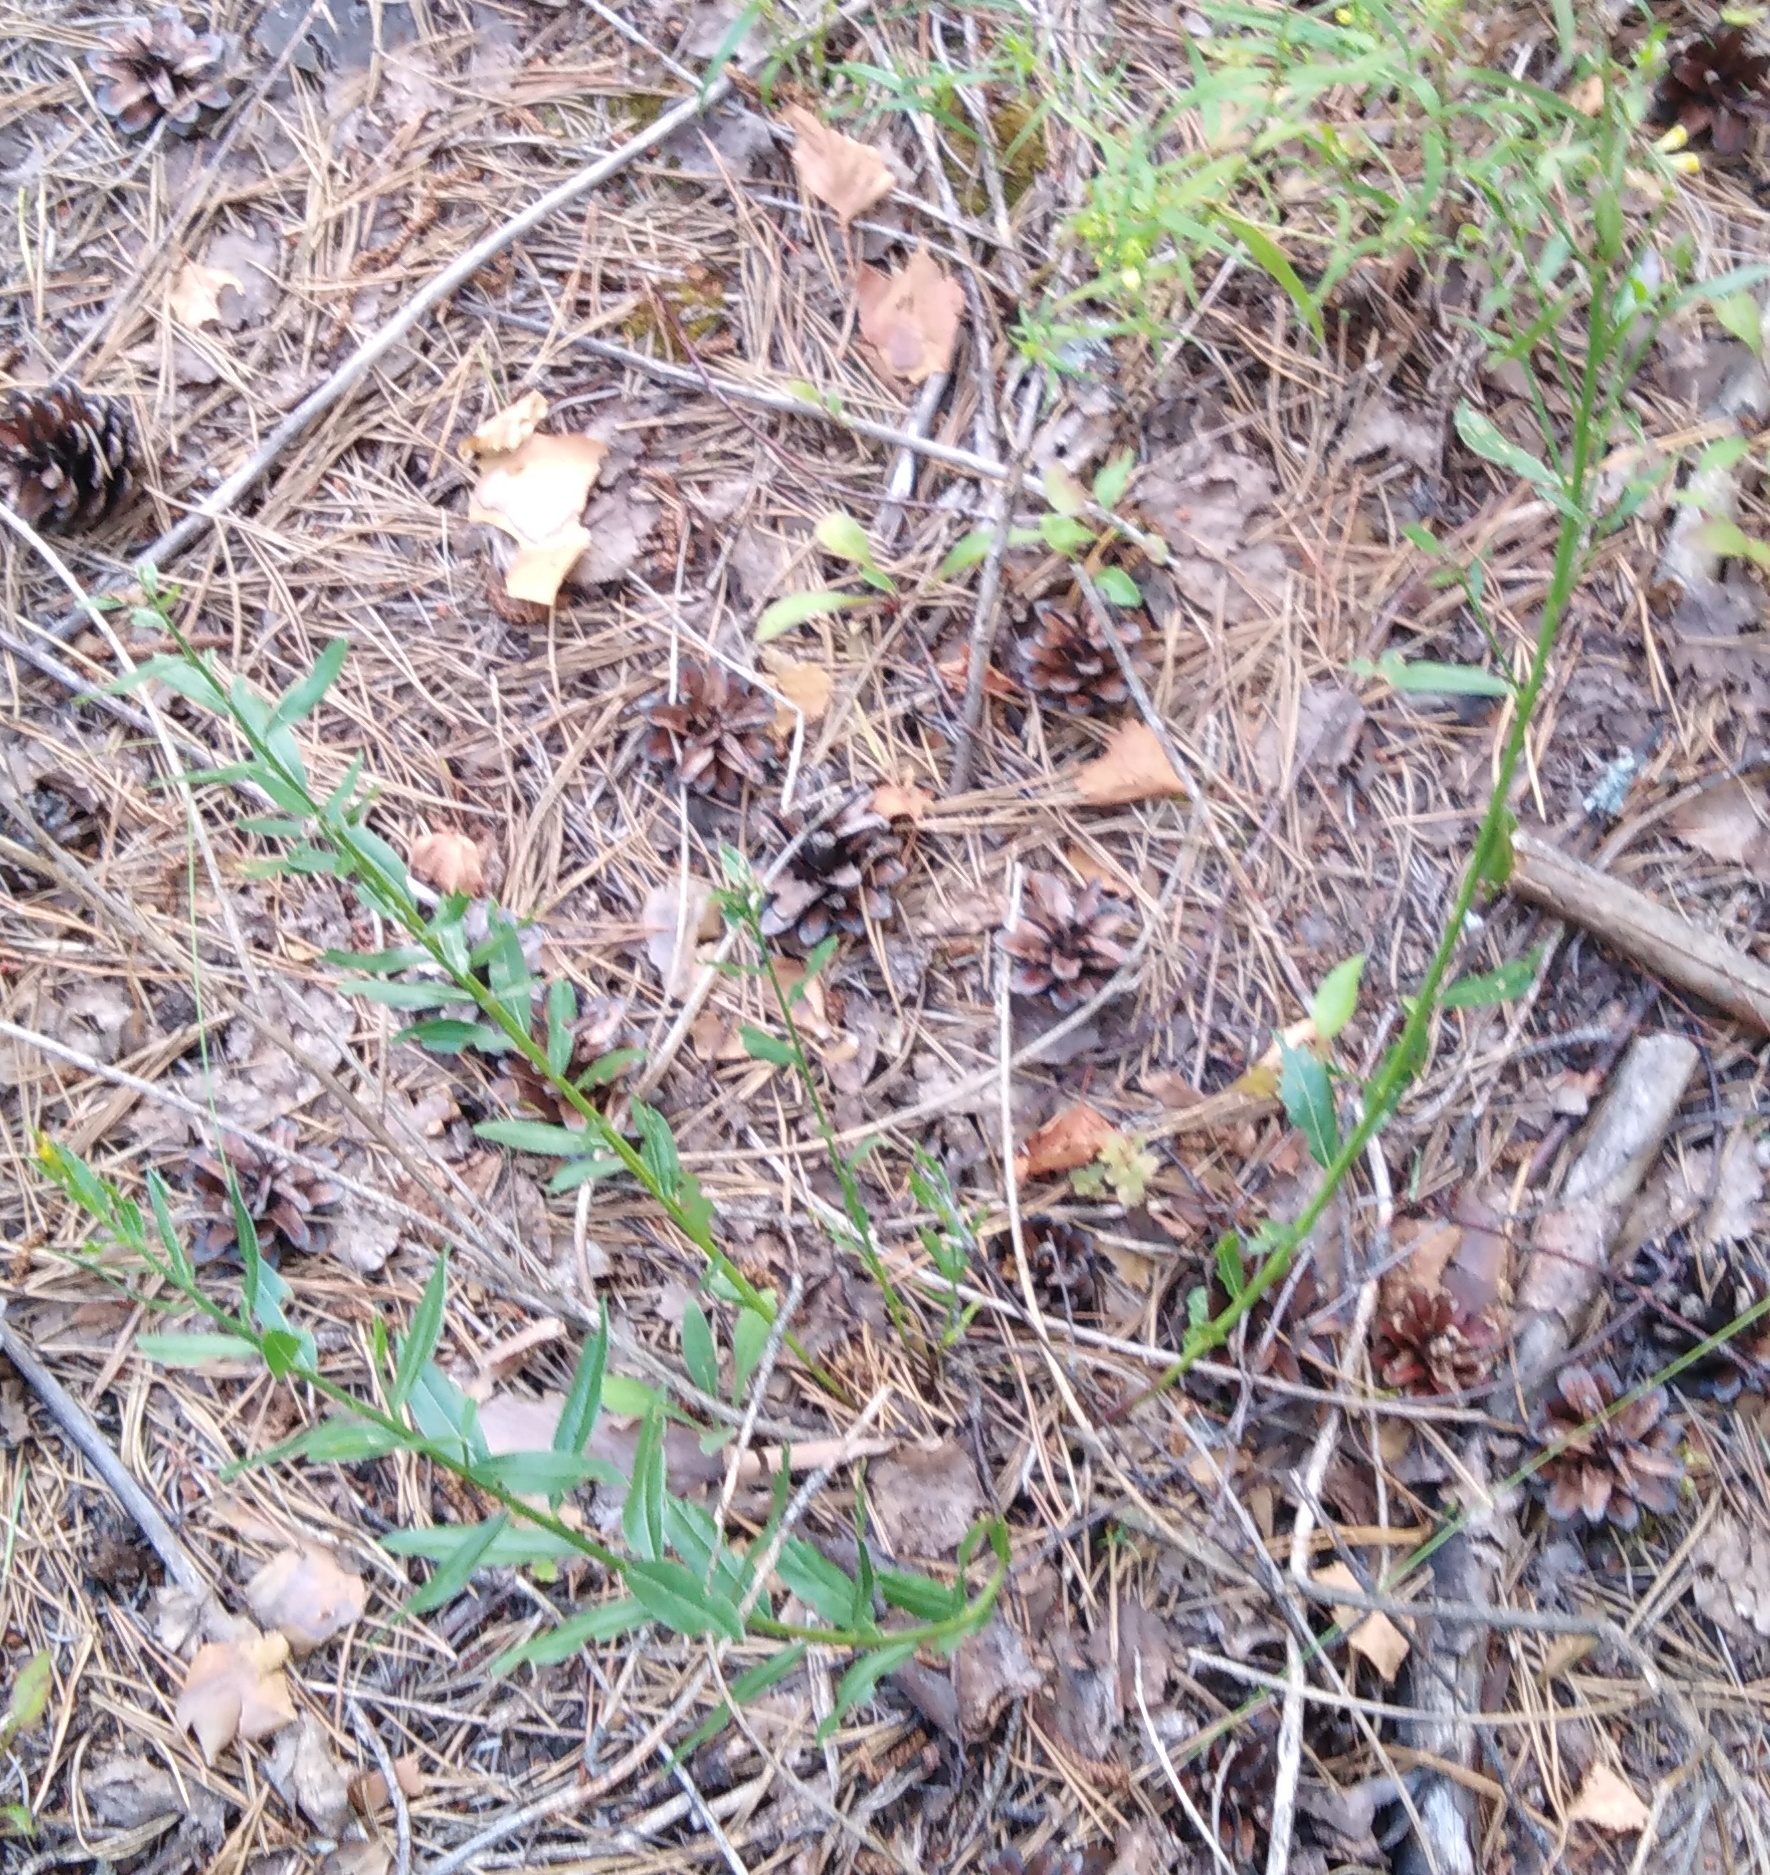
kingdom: Plantae
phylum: Tracheophyta
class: Magnoliopsida
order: Fabales
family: Fabaceae
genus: Genista
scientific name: Genista tinctoria
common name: Dyer's greenweed
